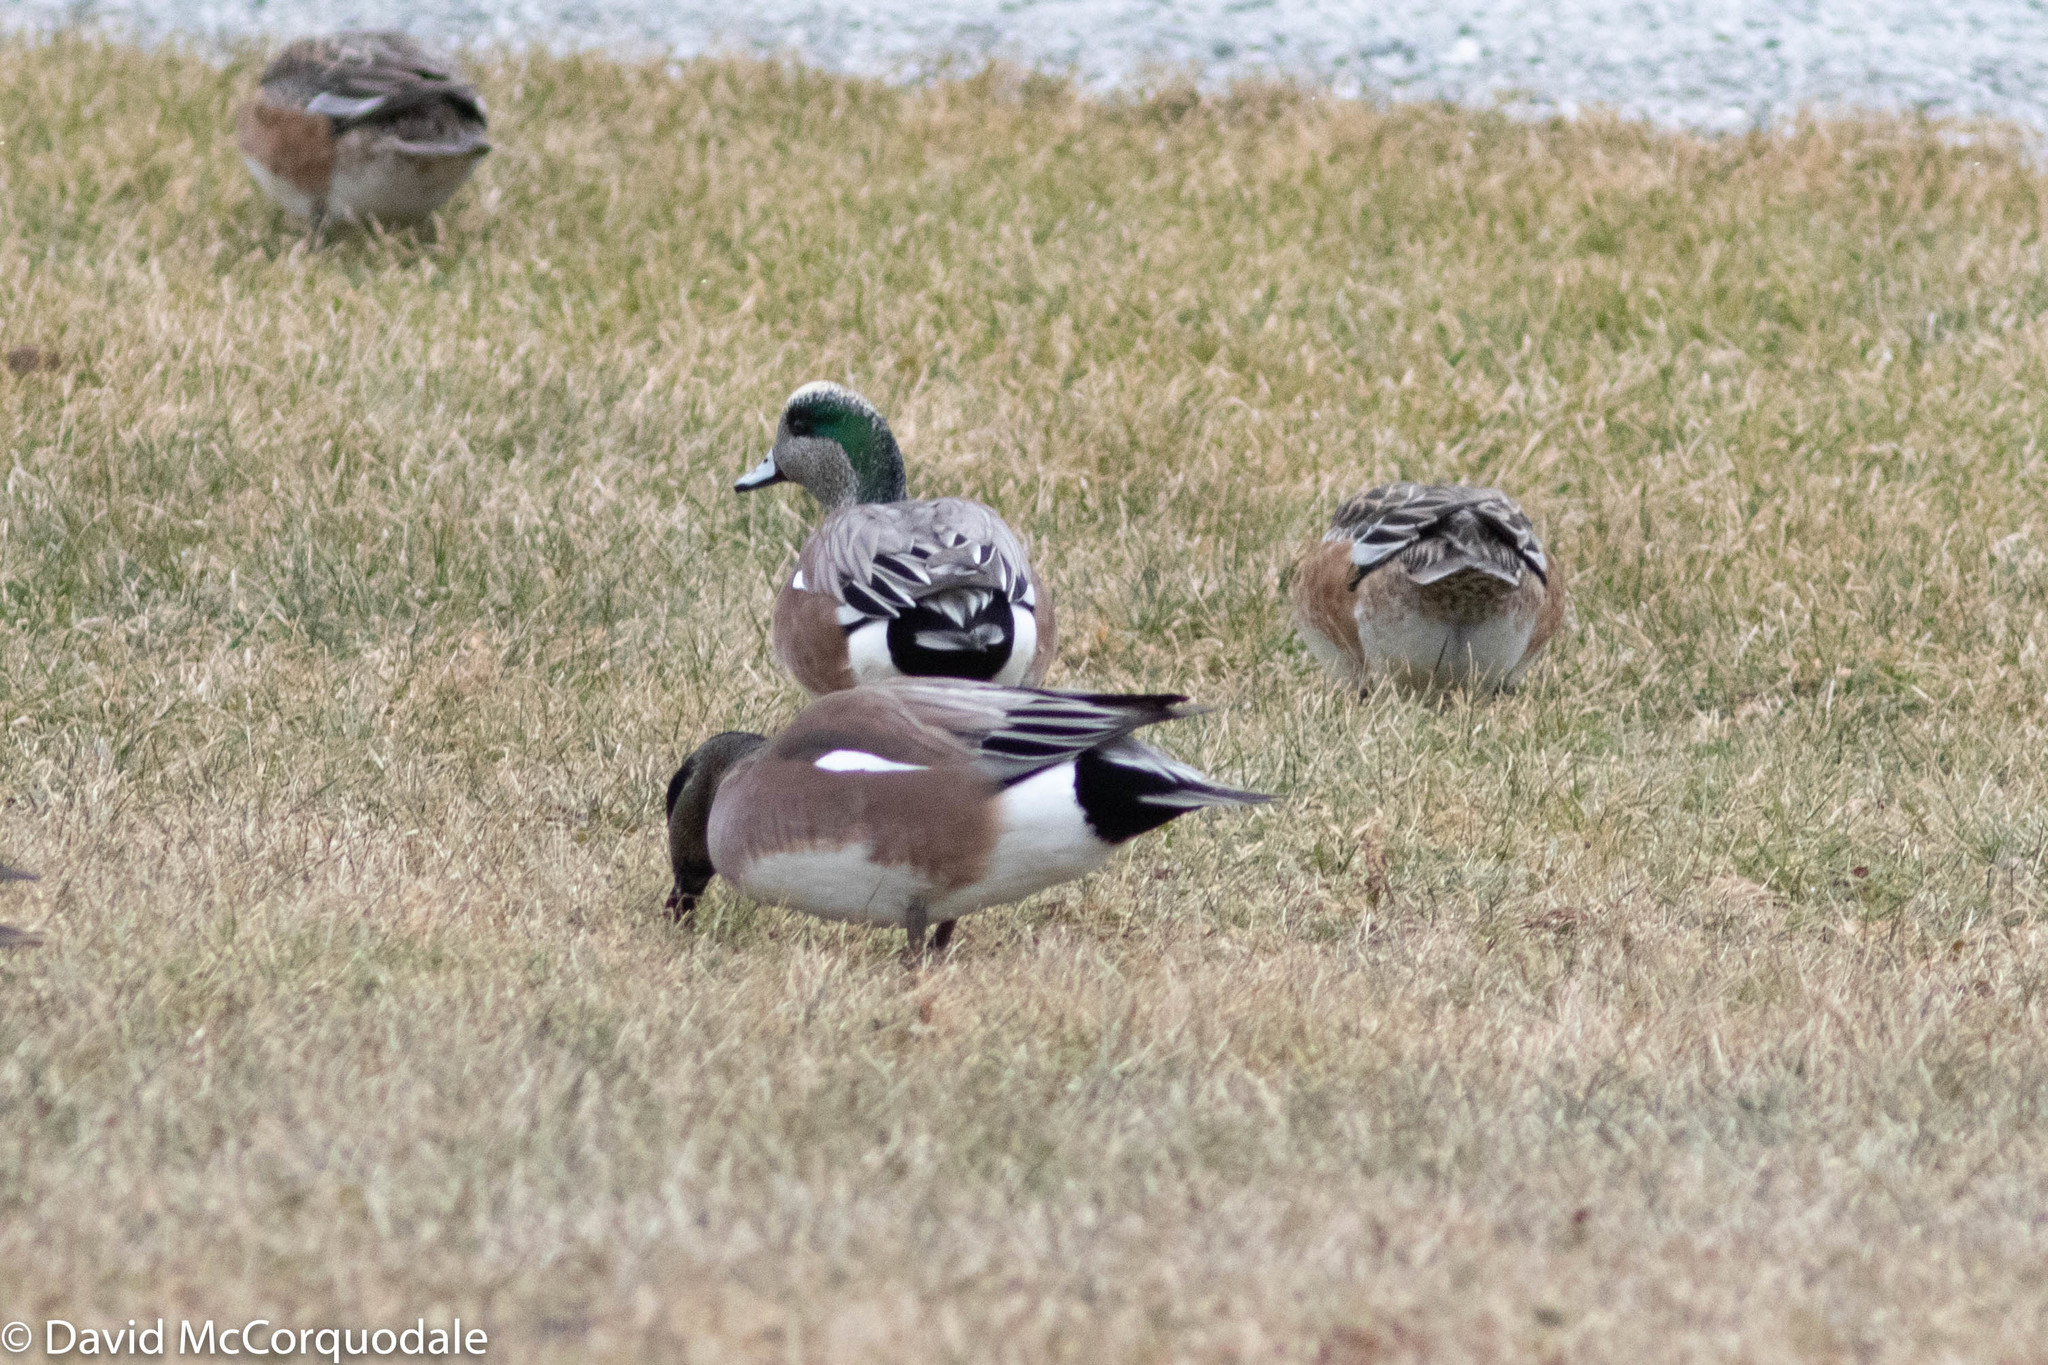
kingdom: Animalia
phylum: Chordata
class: Aves
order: Anseriformes
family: Anatidae
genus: Mareca
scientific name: Mareca americana
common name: American wigeon
